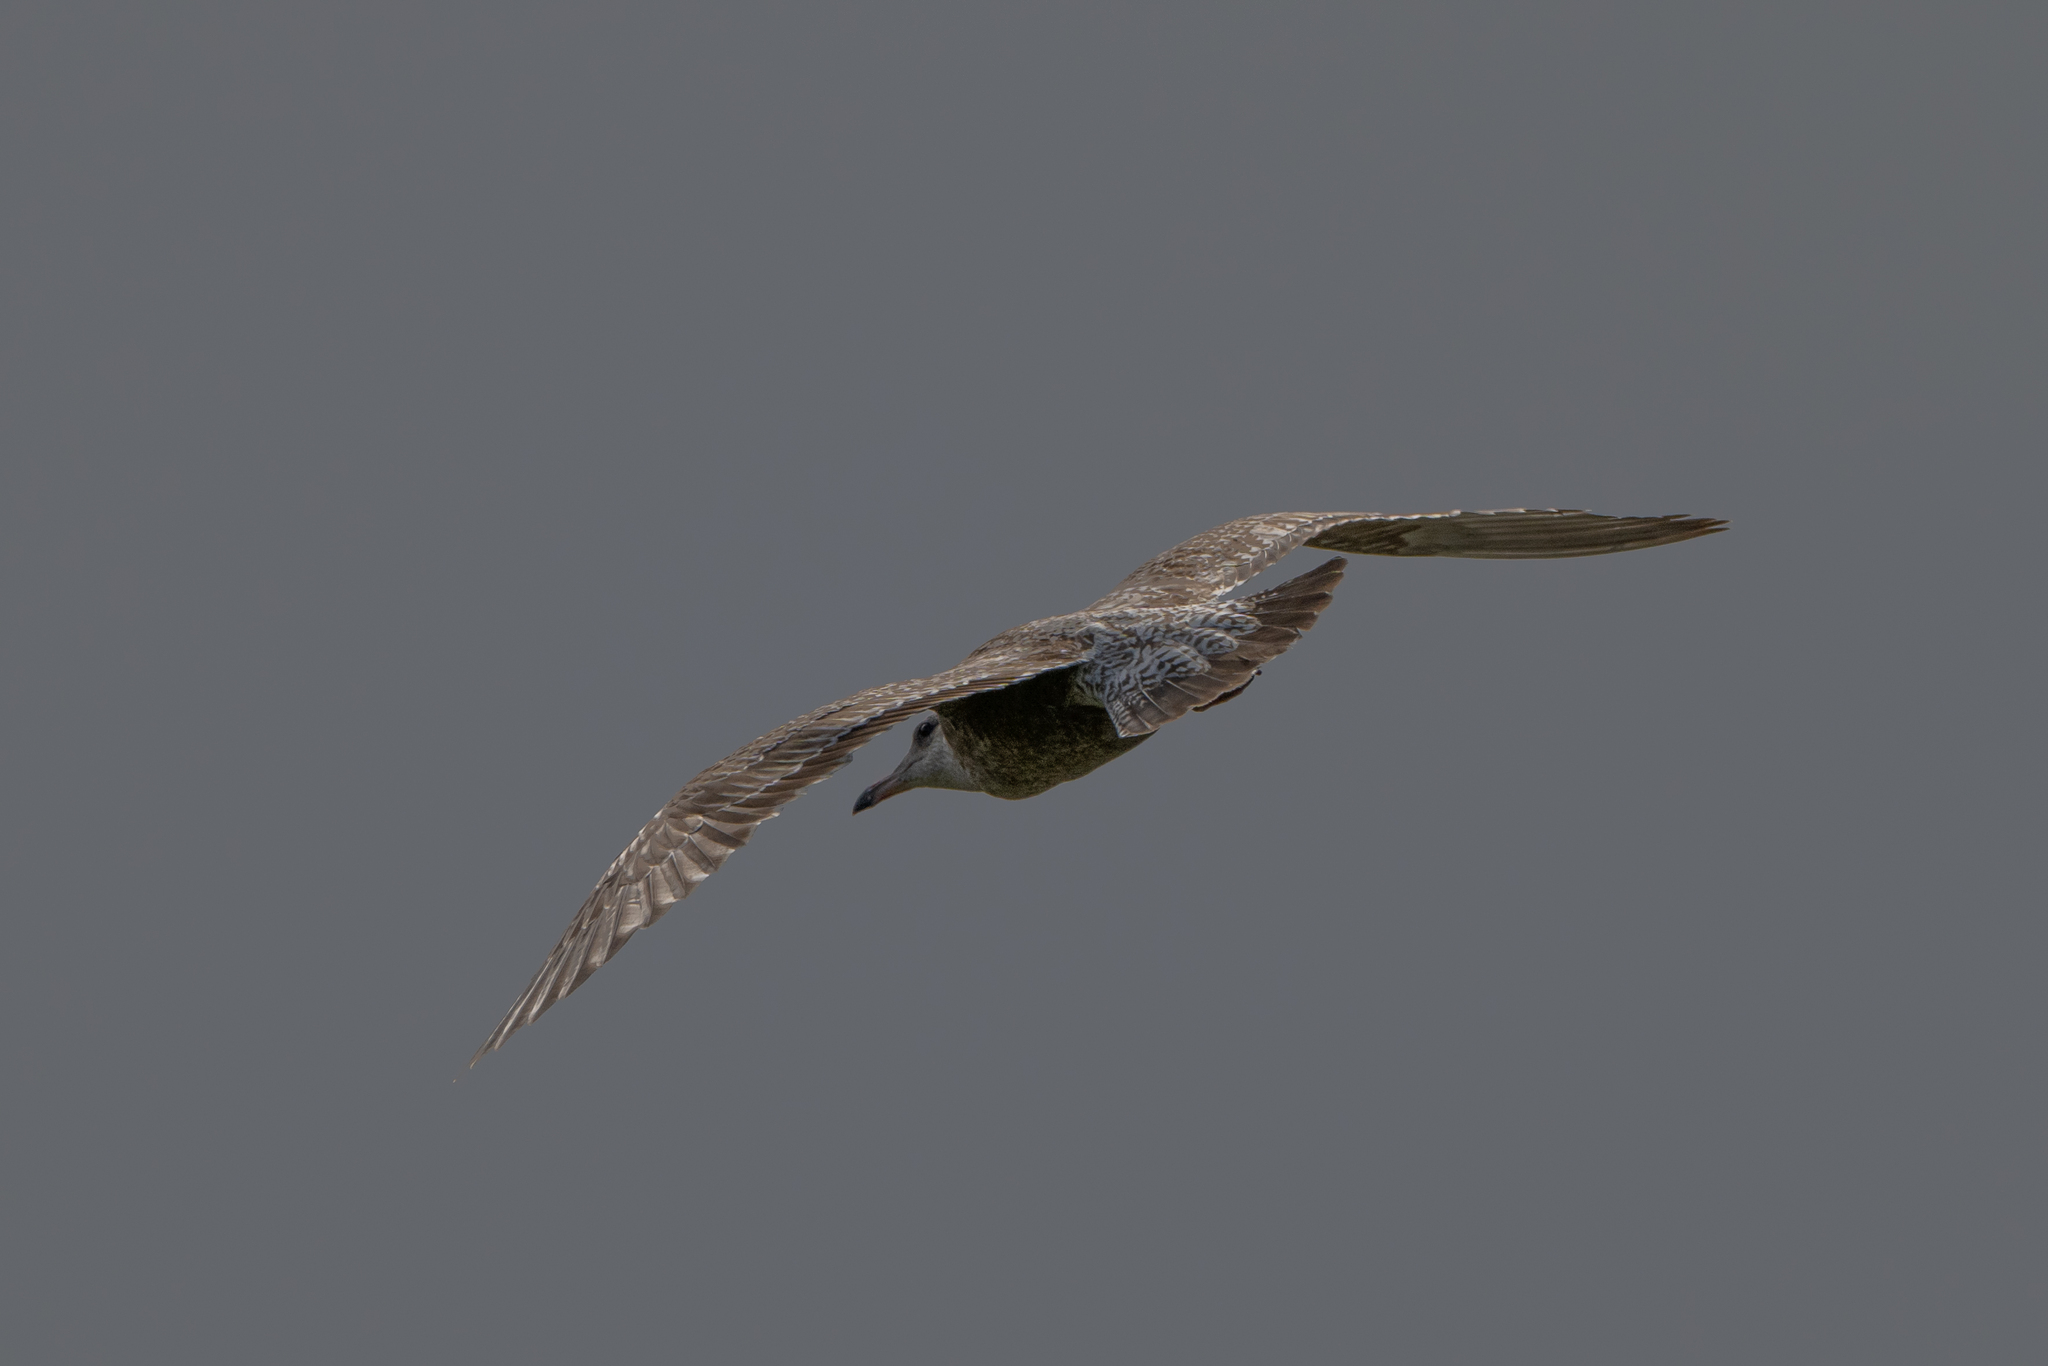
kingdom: Animalia
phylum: Chordata
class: Aves
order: Charadriiformes
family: Laridae
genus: Larus
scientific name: Larus californicus
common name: California gull
